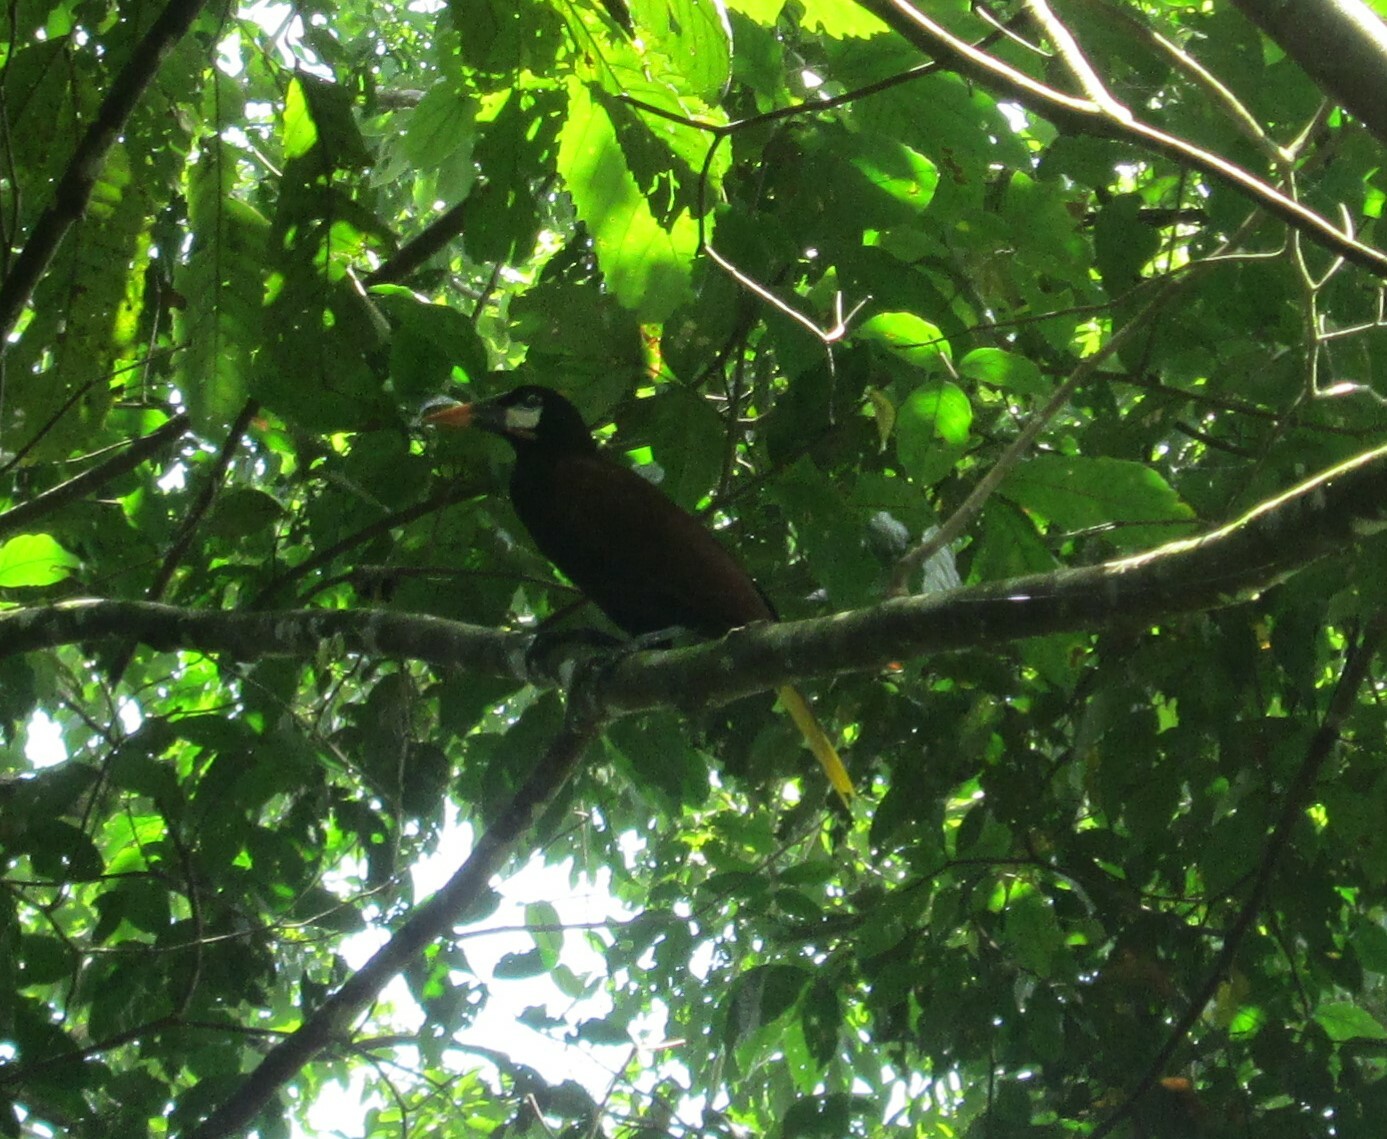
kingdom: Animalia
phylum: Chordata
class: Aves
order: Passeriformes
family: Icteridae
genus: Psarocolius
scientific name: Psarocolius montezuma
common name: Montezuma oropendola
